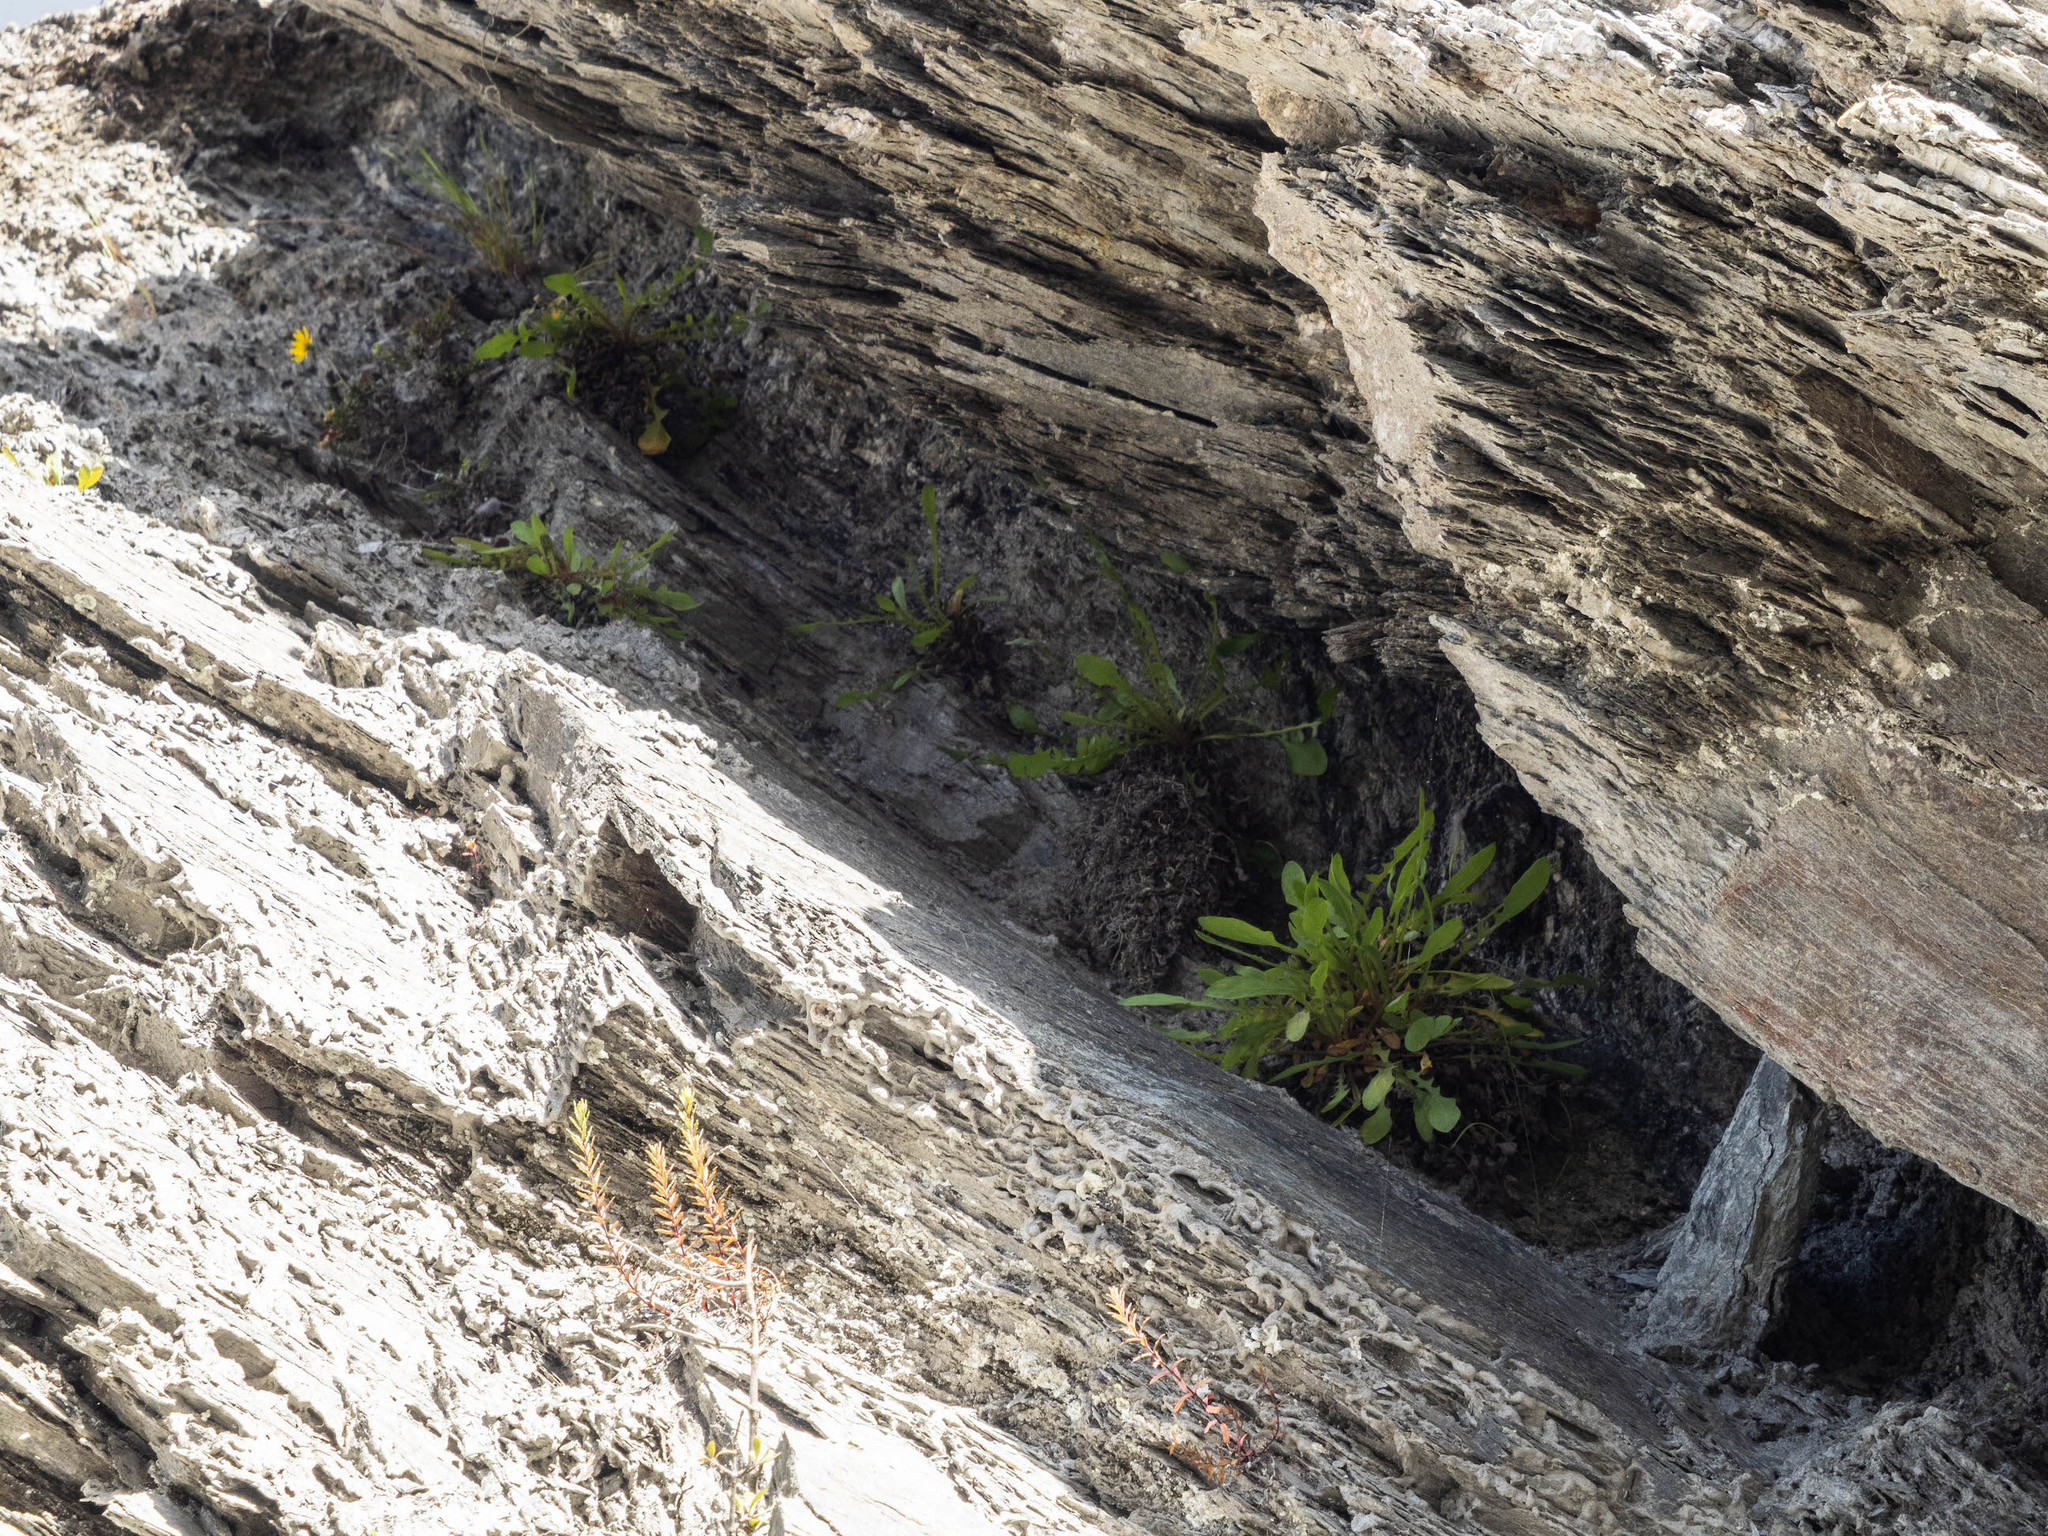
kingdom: Plantae
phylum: Tracheophyta
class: Magnoliopsida
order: Asterales
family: Asteraceae
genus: Sonchus
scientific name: Sonchus novae-zelandiae
